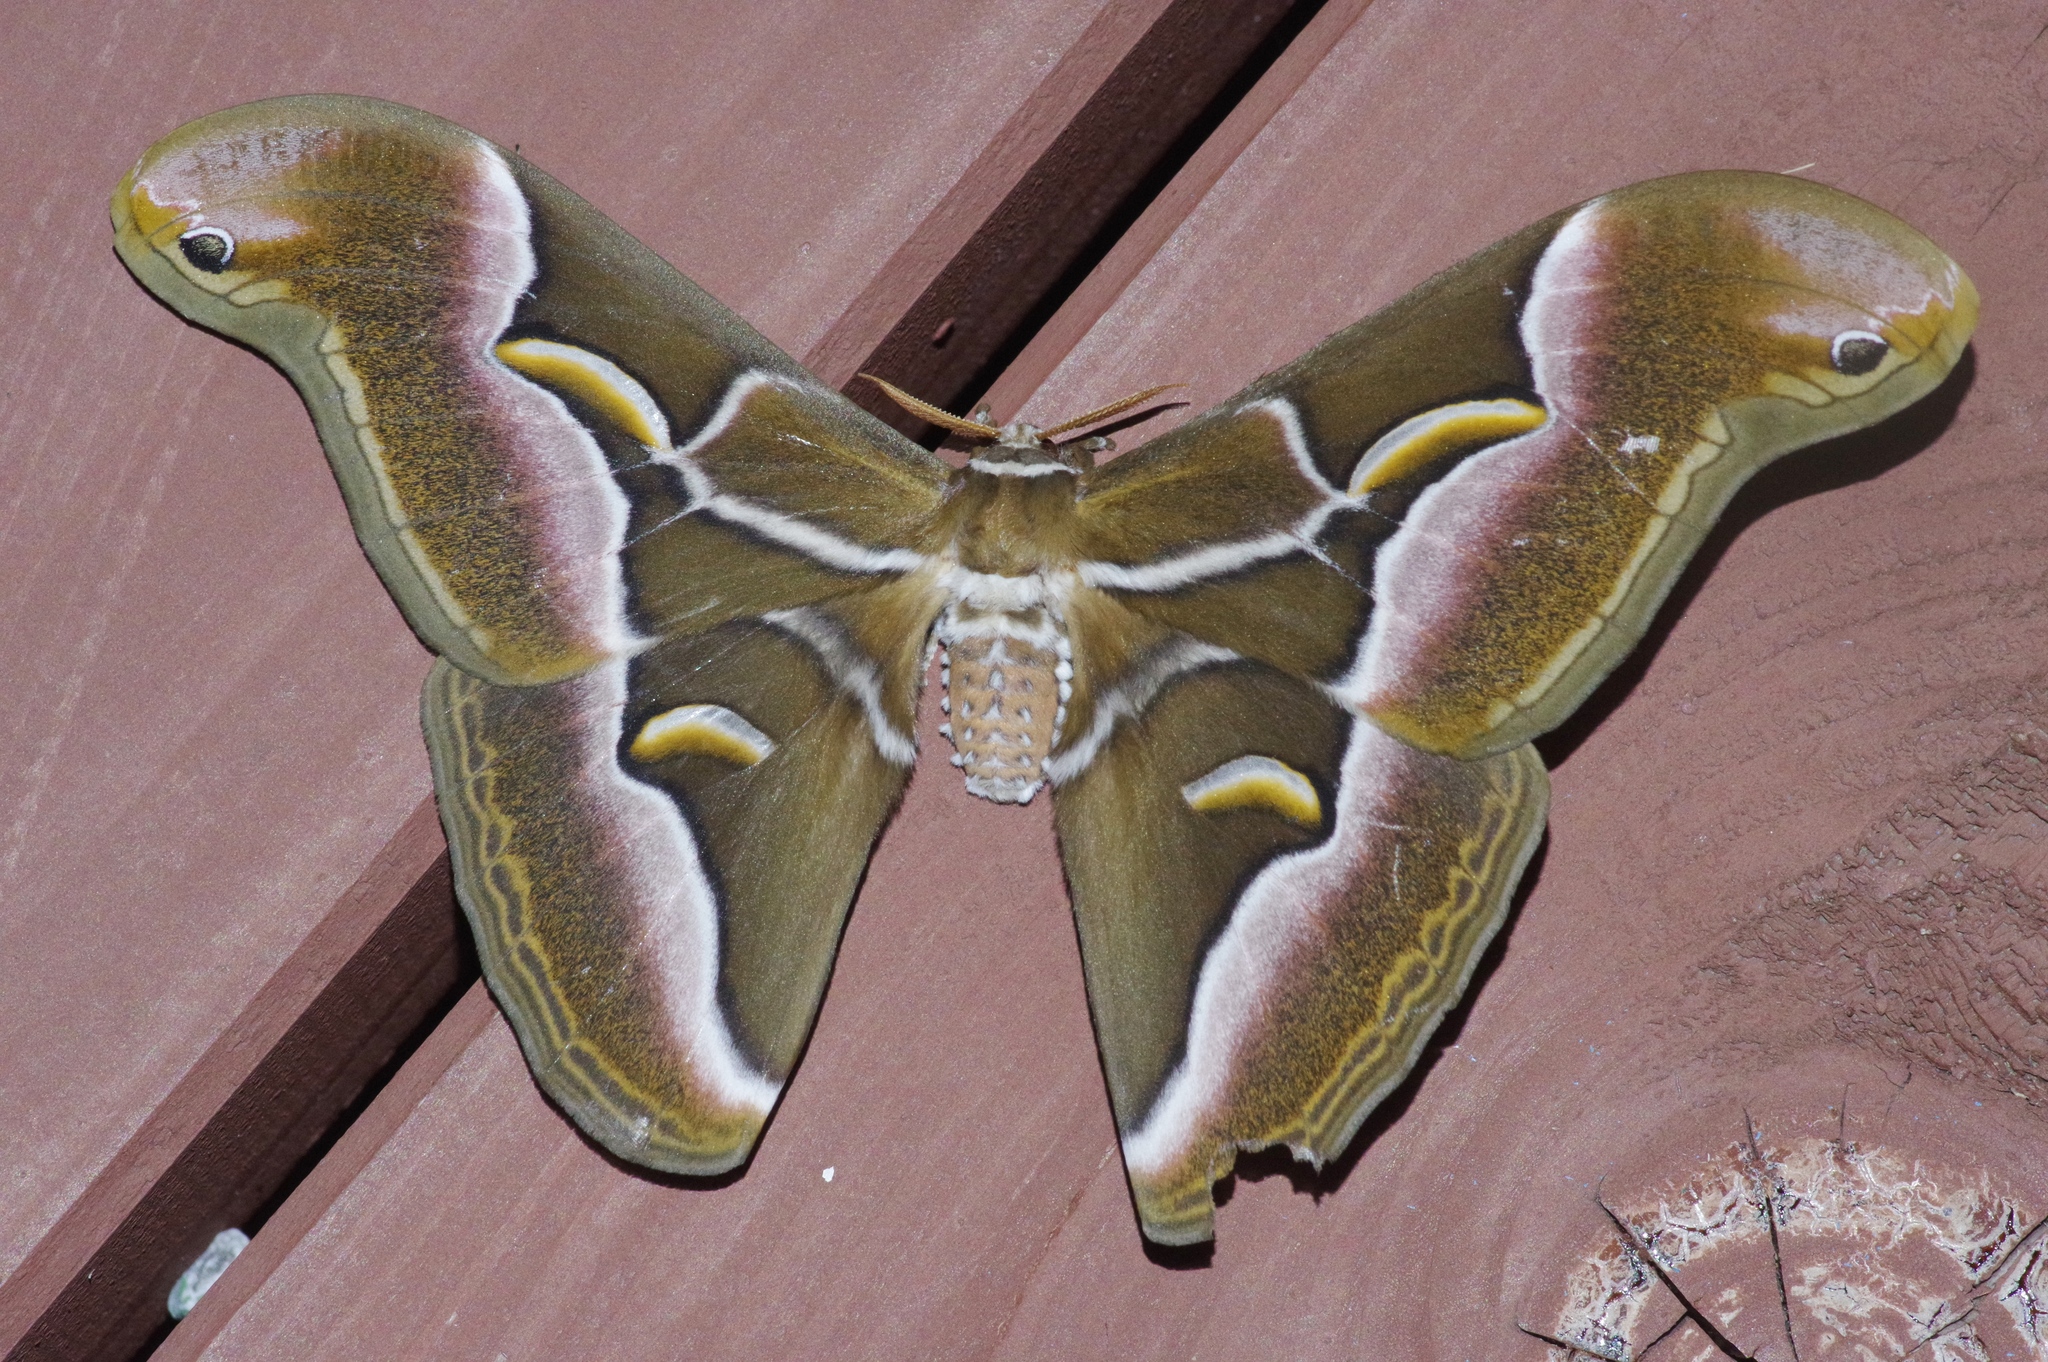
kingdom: Animalia
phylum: Arthropoda
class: Insecta
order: Lepidoptera
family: Saturniidae
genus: Samia
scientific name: Samia cynthia
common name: Ailanthus silkmoth
